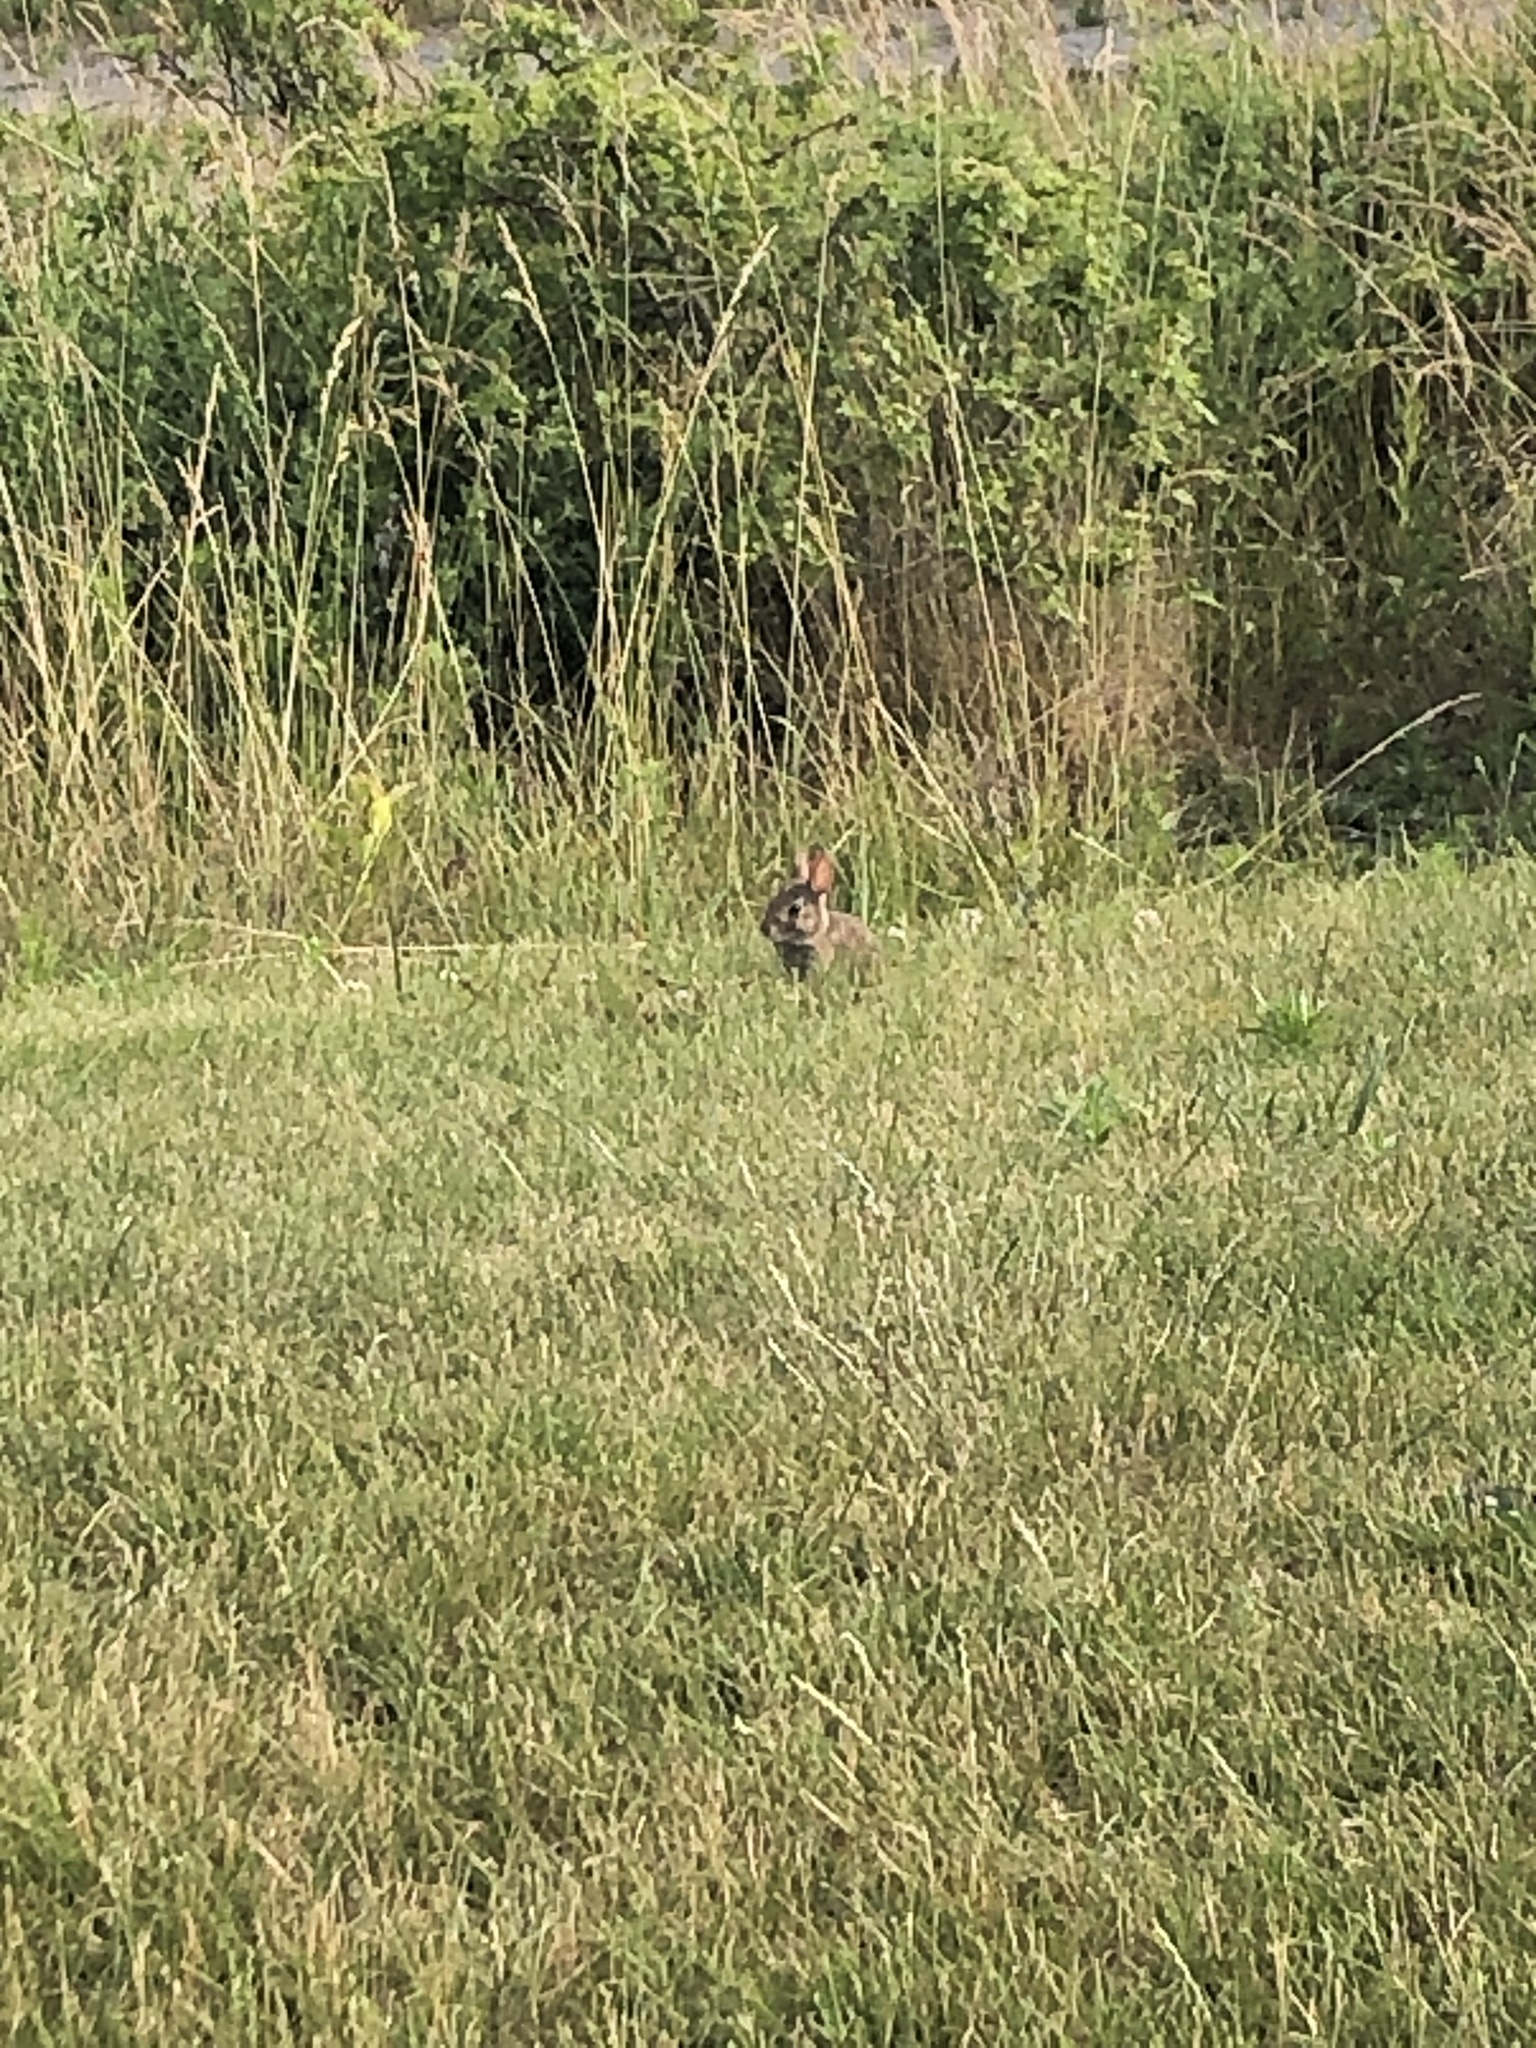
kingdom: Animalia
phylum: Chordata
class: Mammalia
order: Lagomorpha
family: Leporidae
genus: Sylvilagus
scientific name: Sylvilagus floridanus
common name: Eastern cottontail
